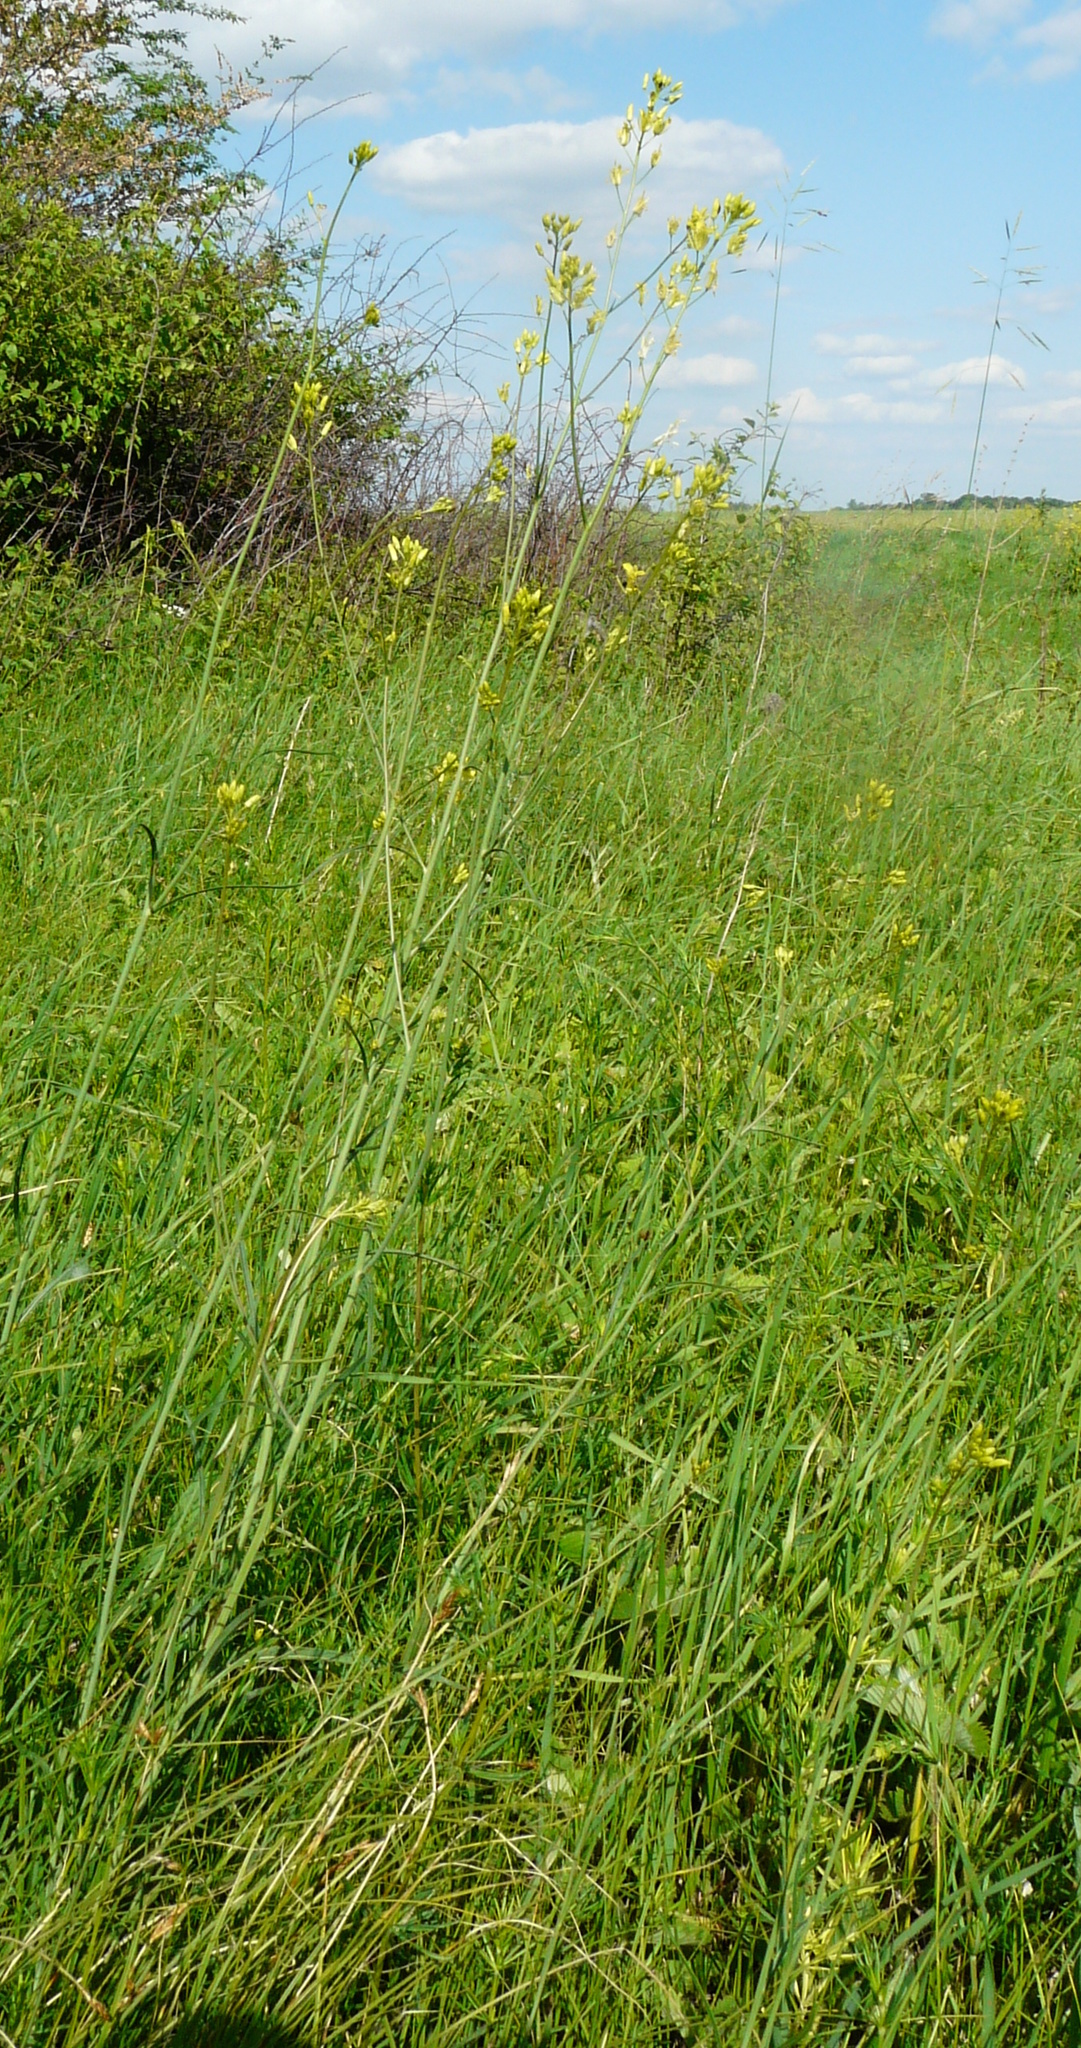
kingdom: Plantae
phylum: Tracheophyta
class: Magnoliopsida
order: Brassicales
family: Brassicaceae
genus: Sisymbrium
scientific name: Sisymbrium polymorphum
